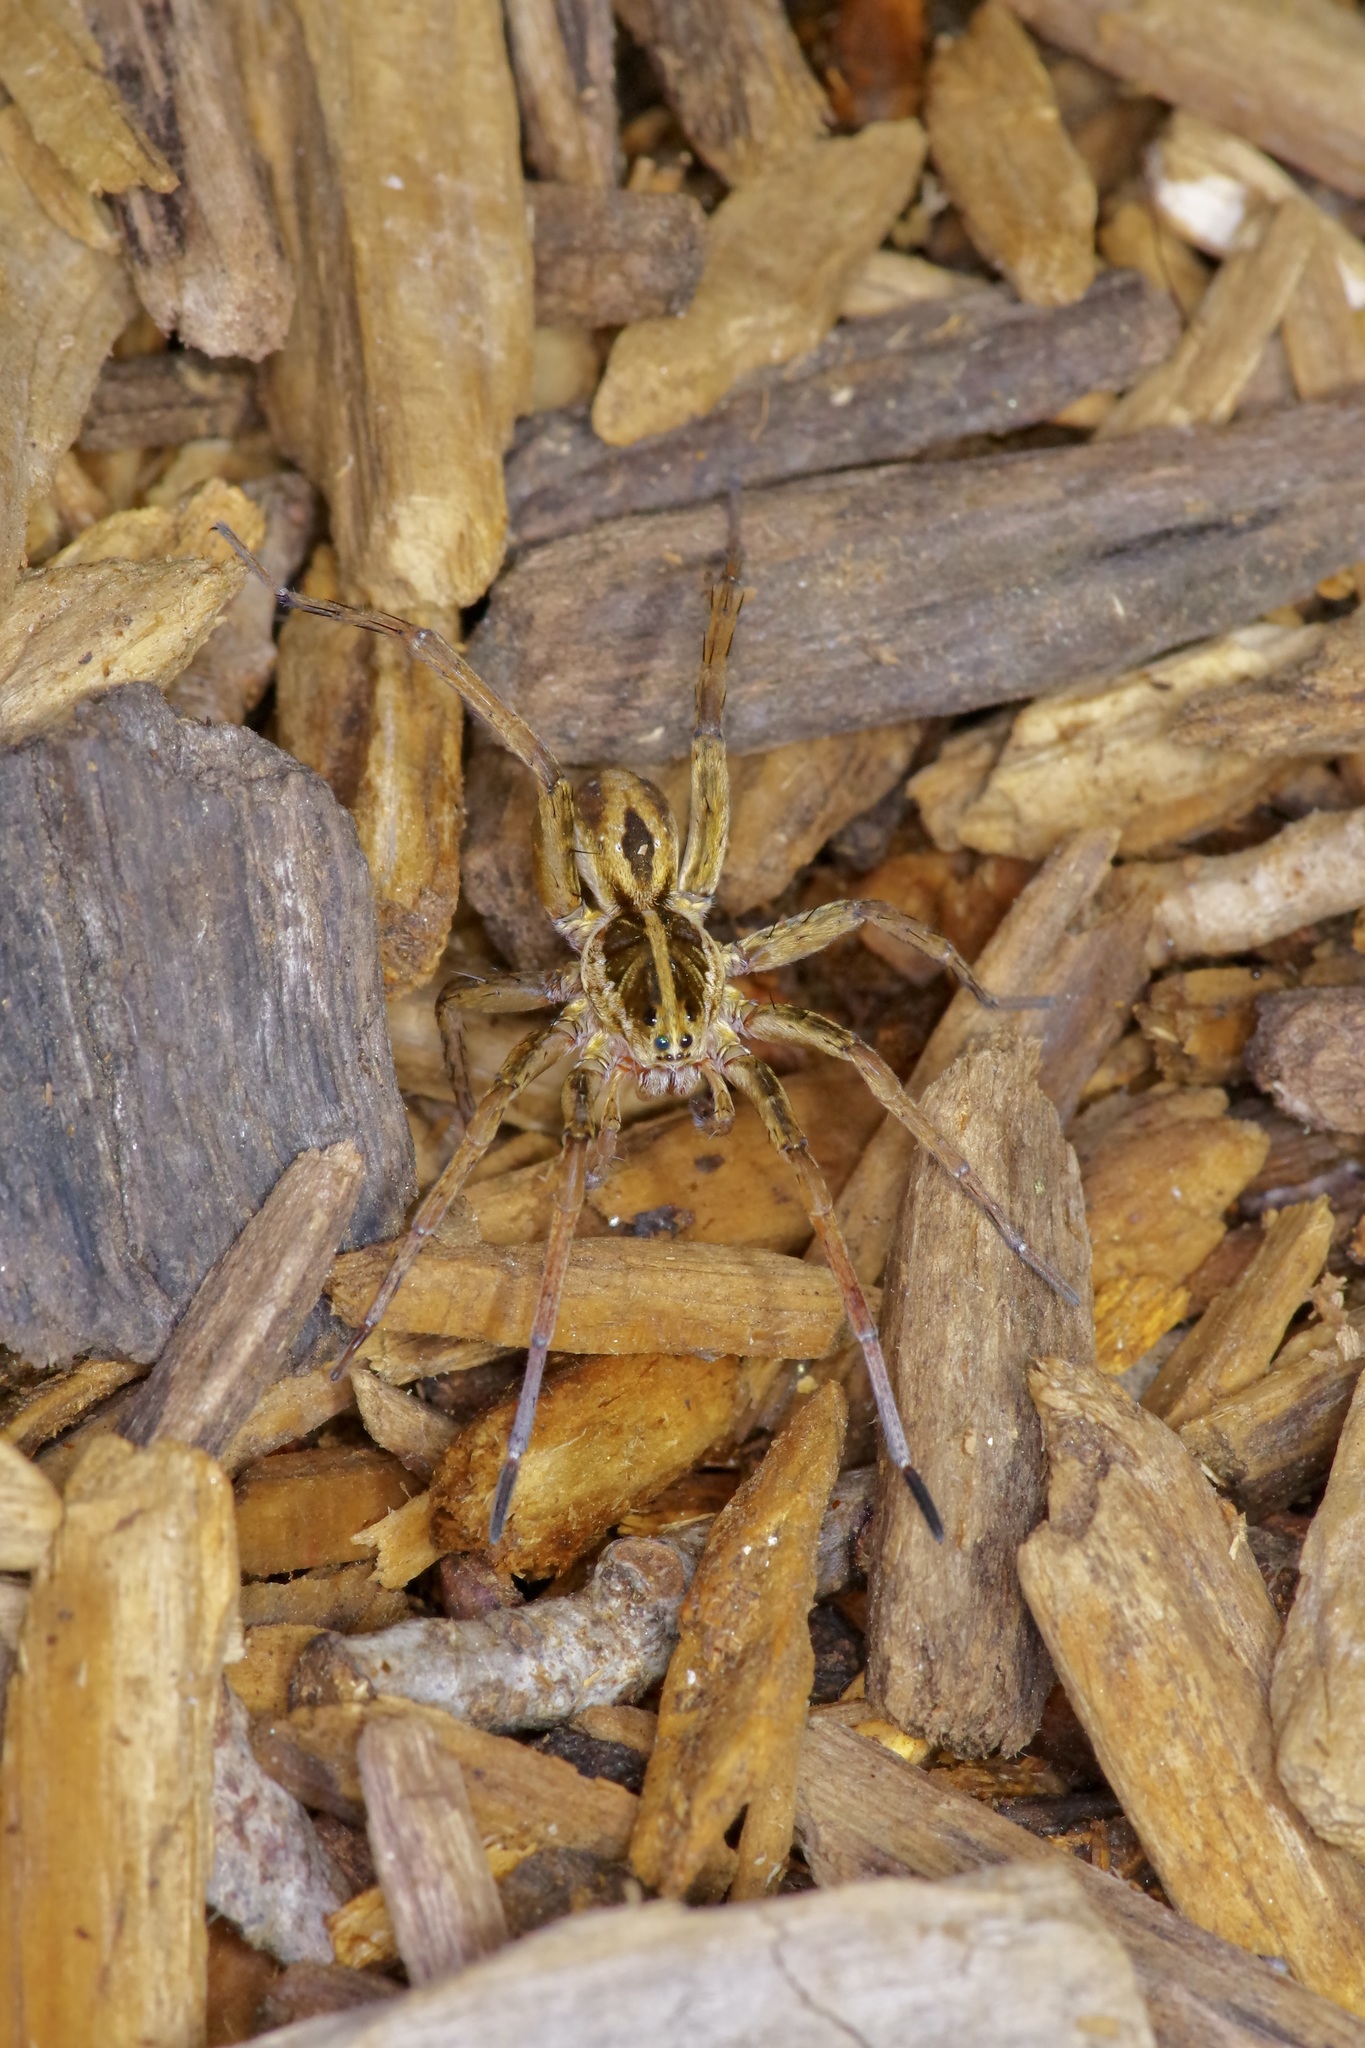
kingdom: Animalia
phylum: Arthropoda
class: Arachnida
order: Araneae
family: Lycosidae
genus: Tigrosa
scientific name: Tigrosa annexa
